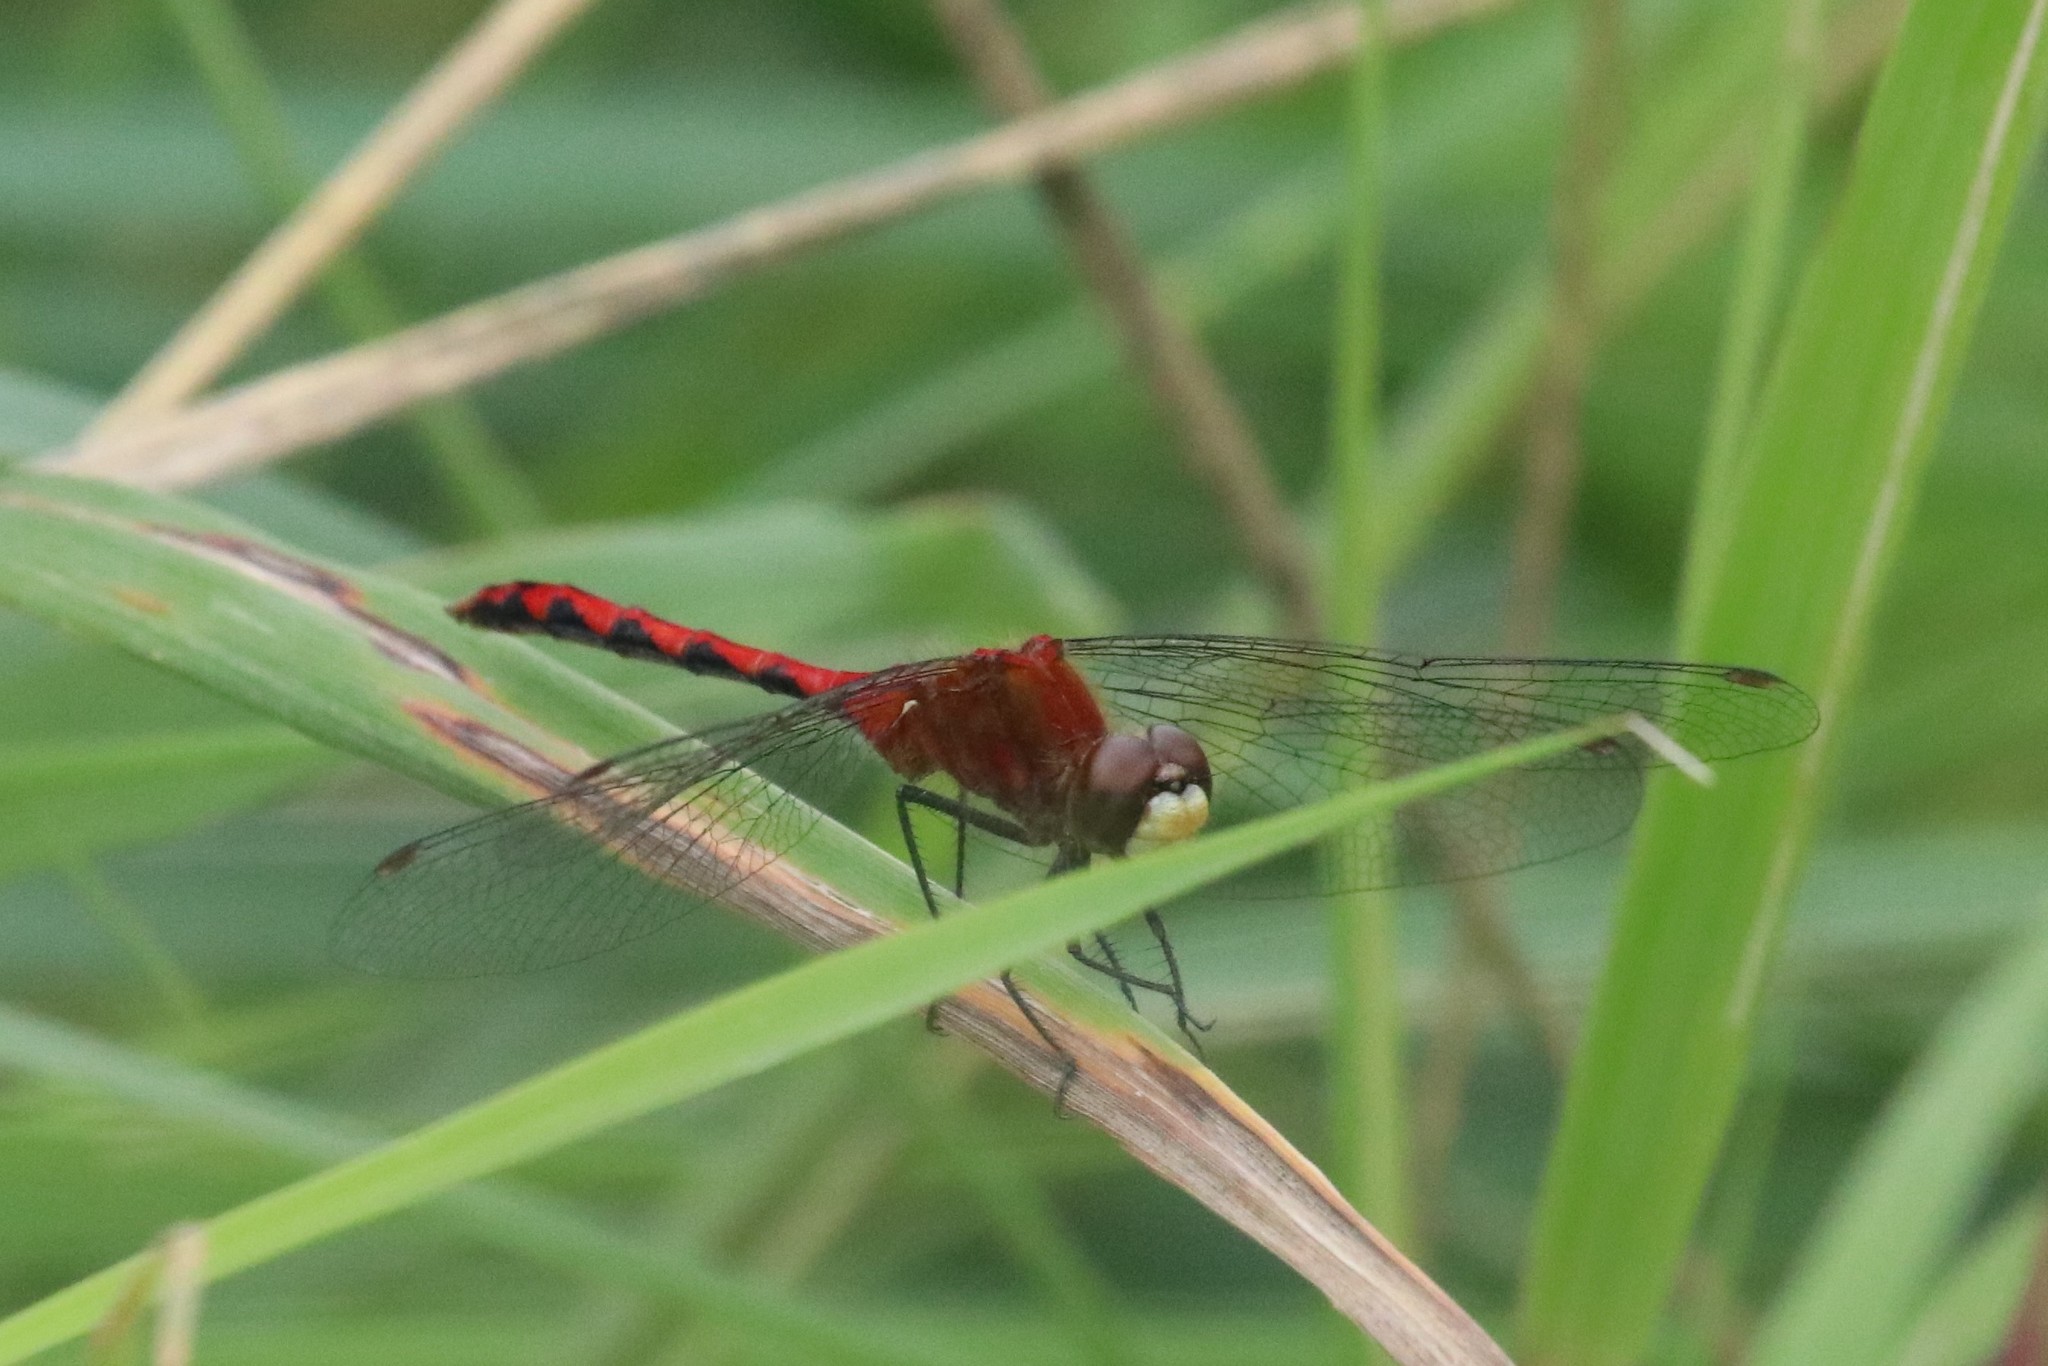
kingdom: Animalia
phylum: Arthropoda
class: Insecta
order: Odonata
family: Libellulidae
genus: Sympetrum
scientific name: Sympetrum obtrusum
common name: White-faced meadowhawk
